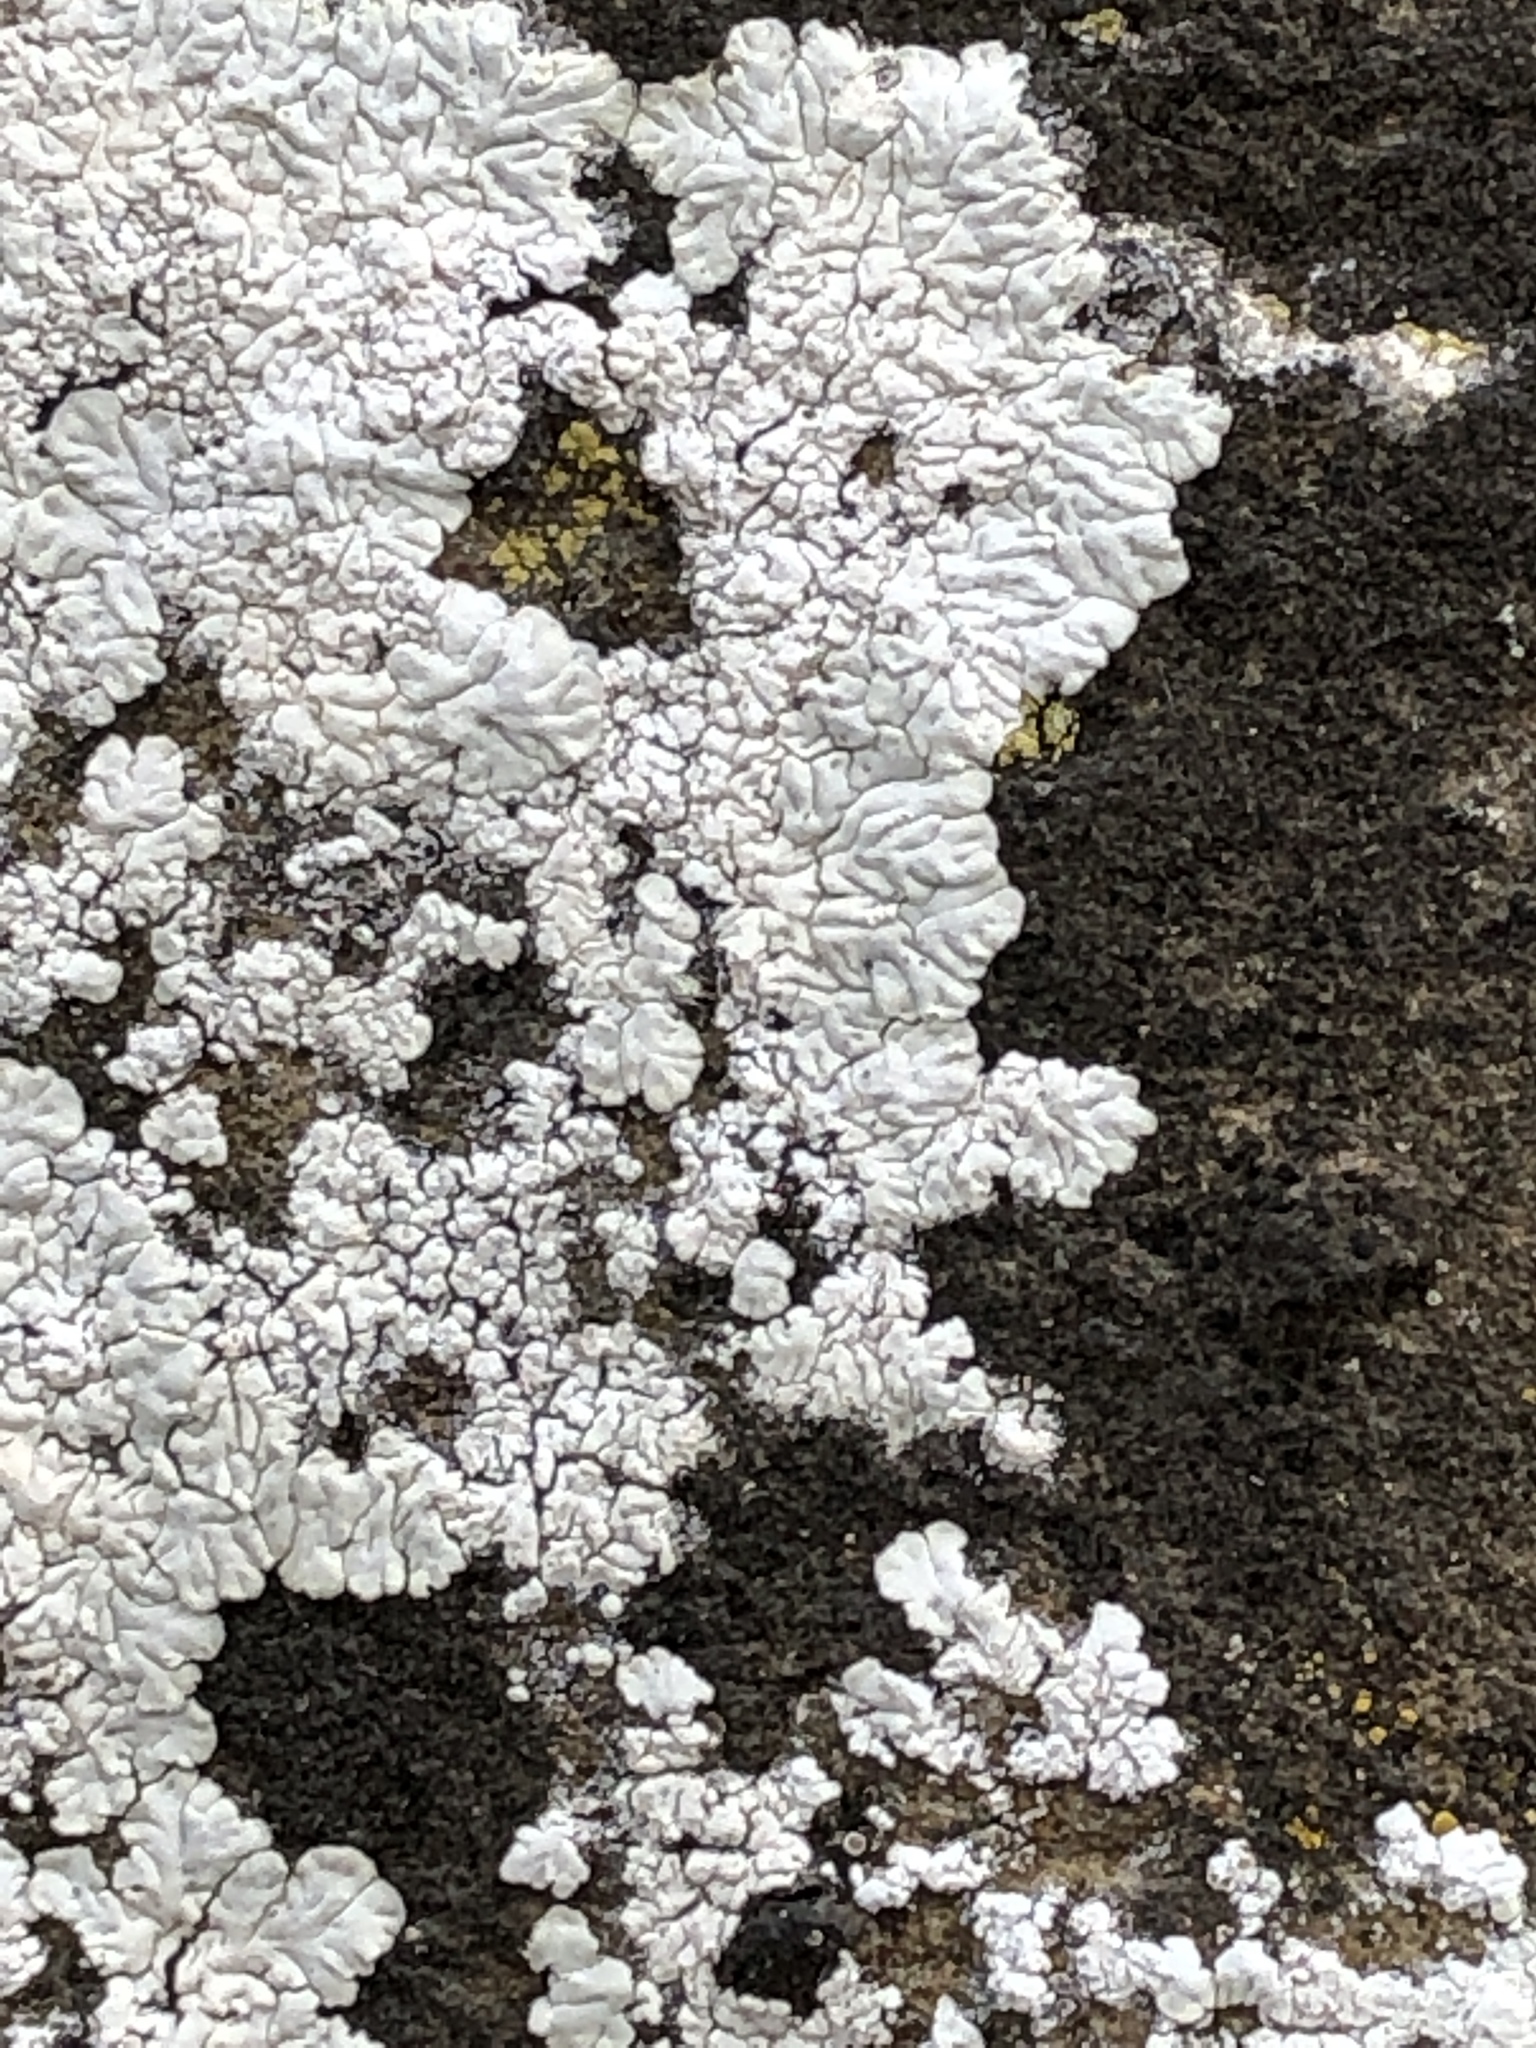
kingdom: Fungi
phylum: Ascomycota
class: Lecanoromycetes
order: Caliciales
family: Caliciaceae
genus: Diploicia
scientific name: Diploicia canescens
